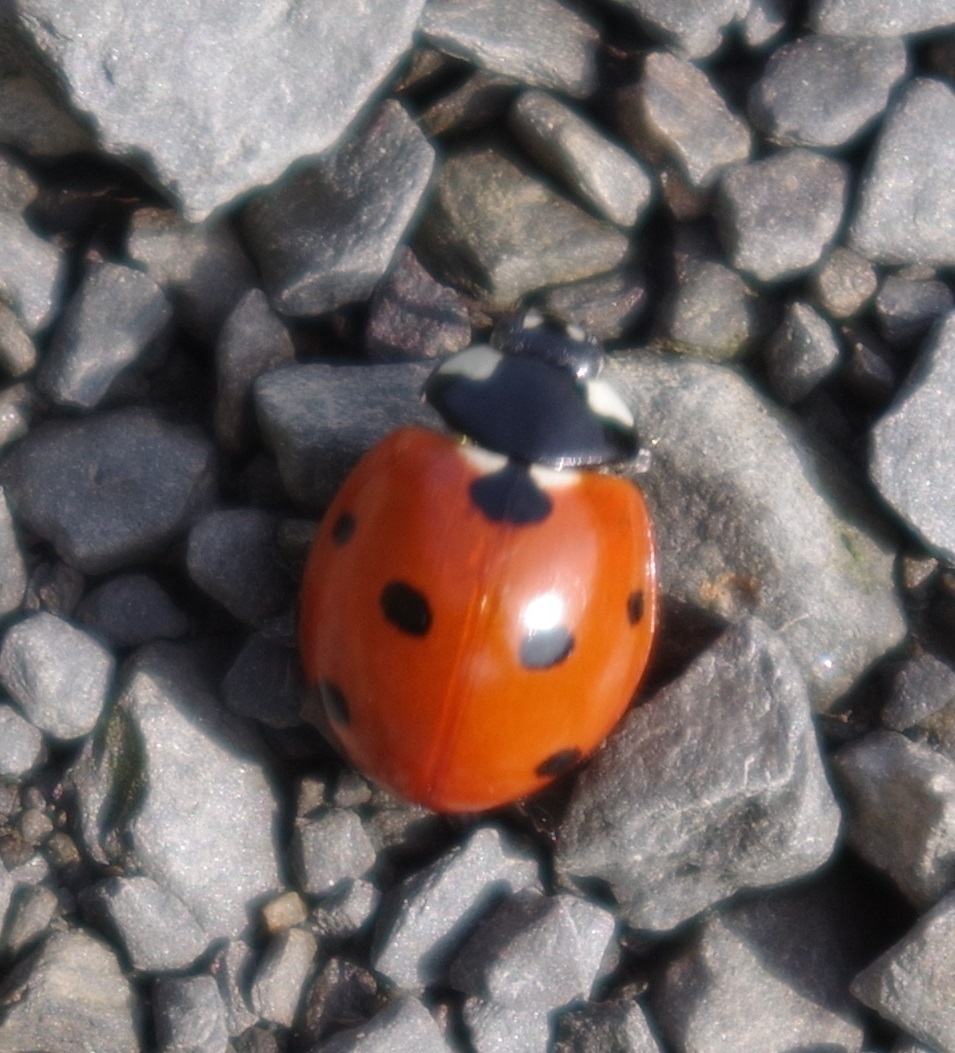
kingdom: Animalia
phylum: Arthropoda
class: Insecta
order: Coleoptera
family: Coccinellidae
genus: Coccinella
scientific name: Coccinella septempunctata
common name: Sevenspotted lady beetle
